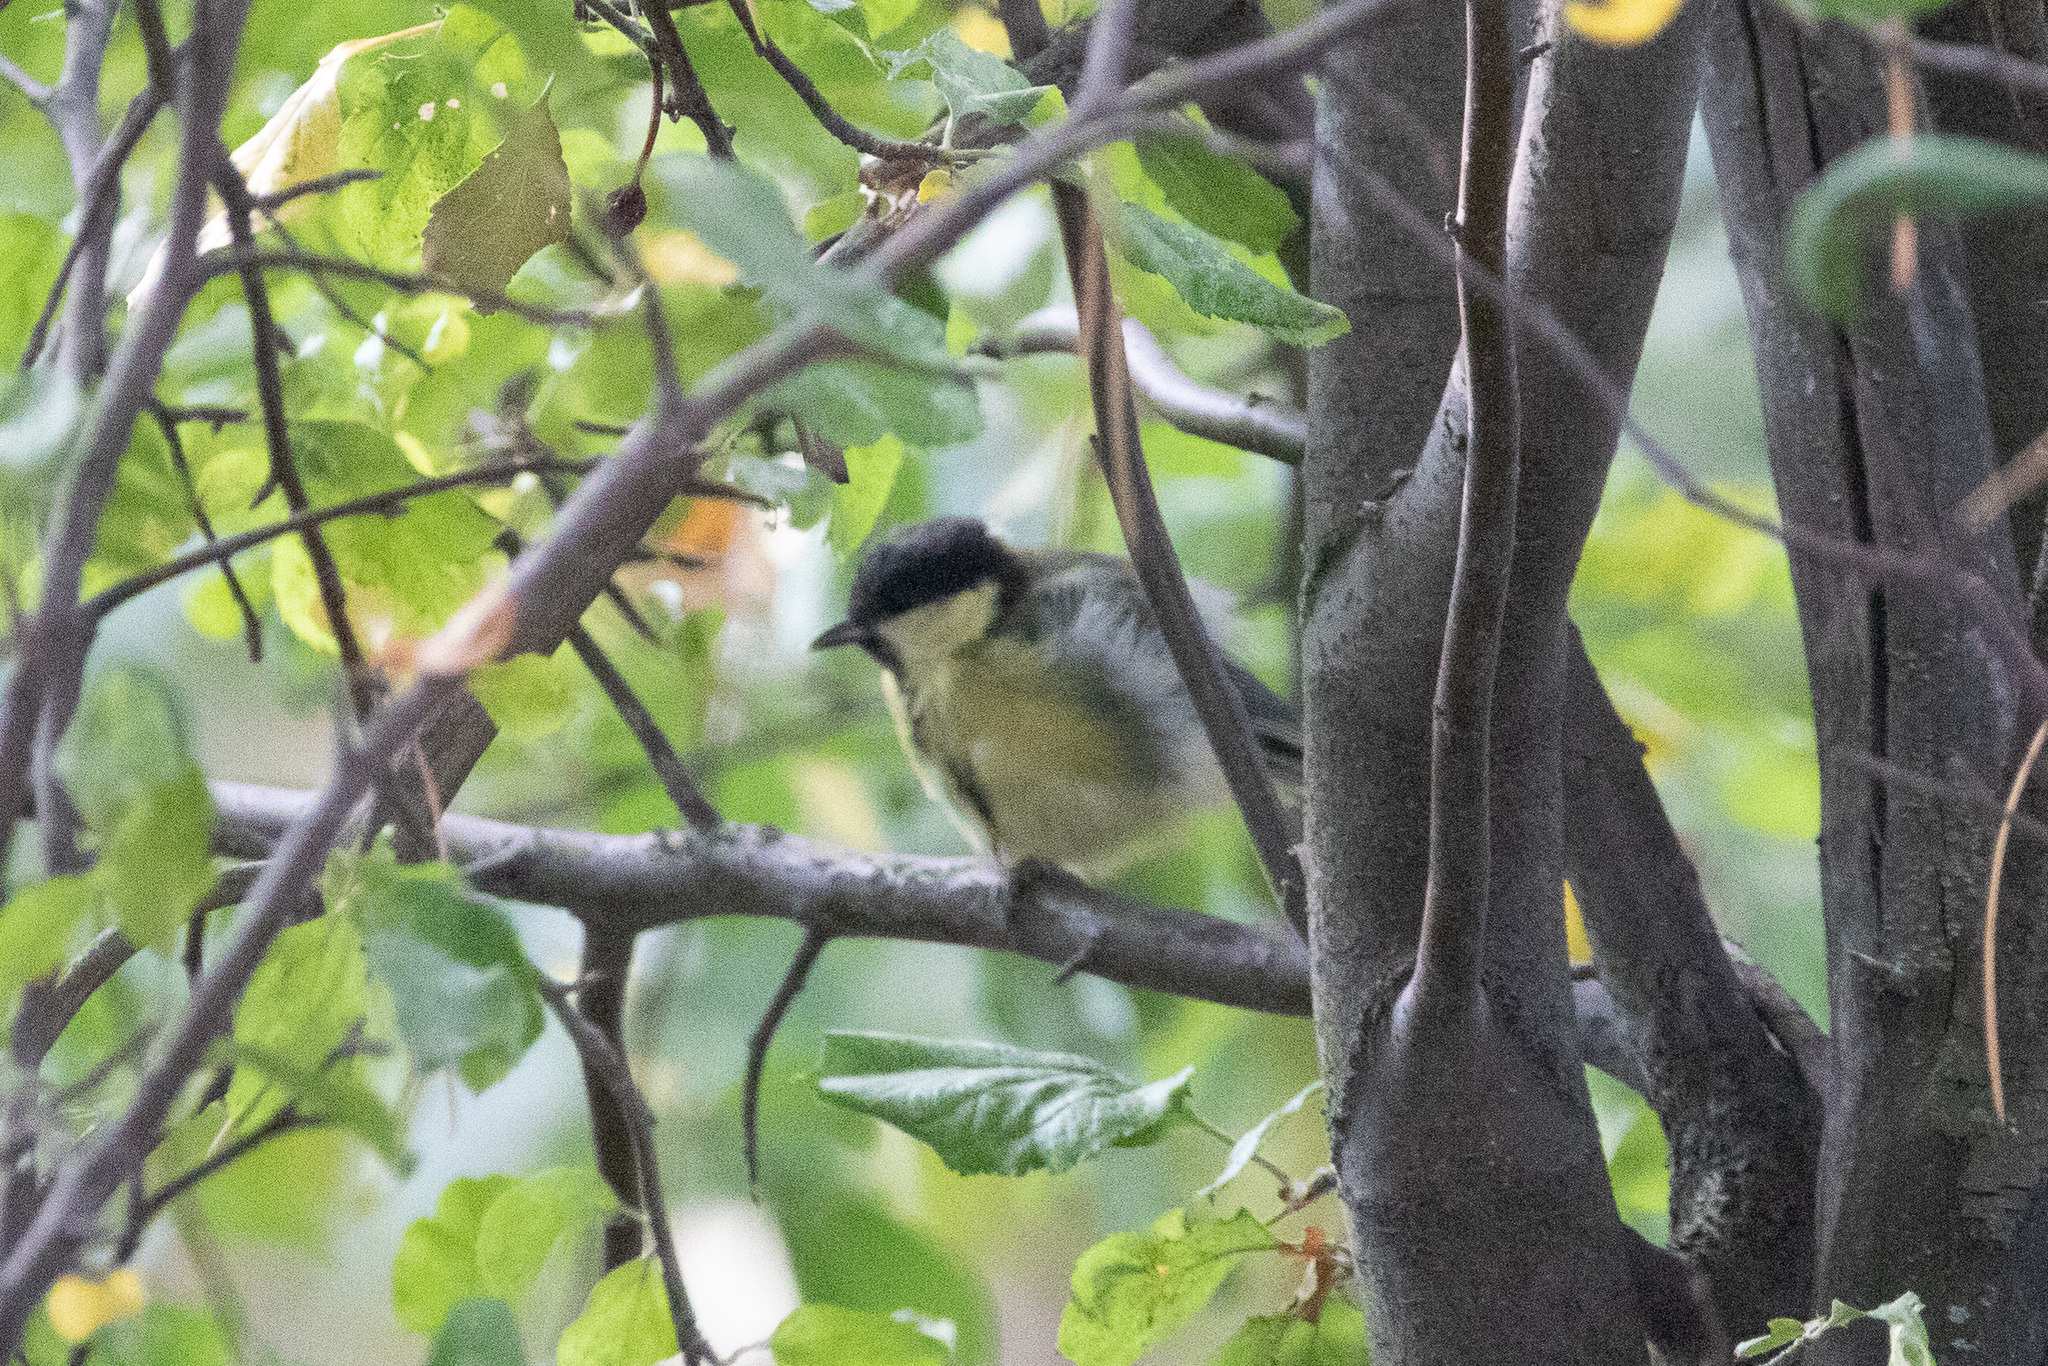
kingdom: Animalia
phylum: Chordata
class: Aves
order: Passeriformes
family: Paridae
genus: Parus
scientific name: Parus major
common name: Great tit
